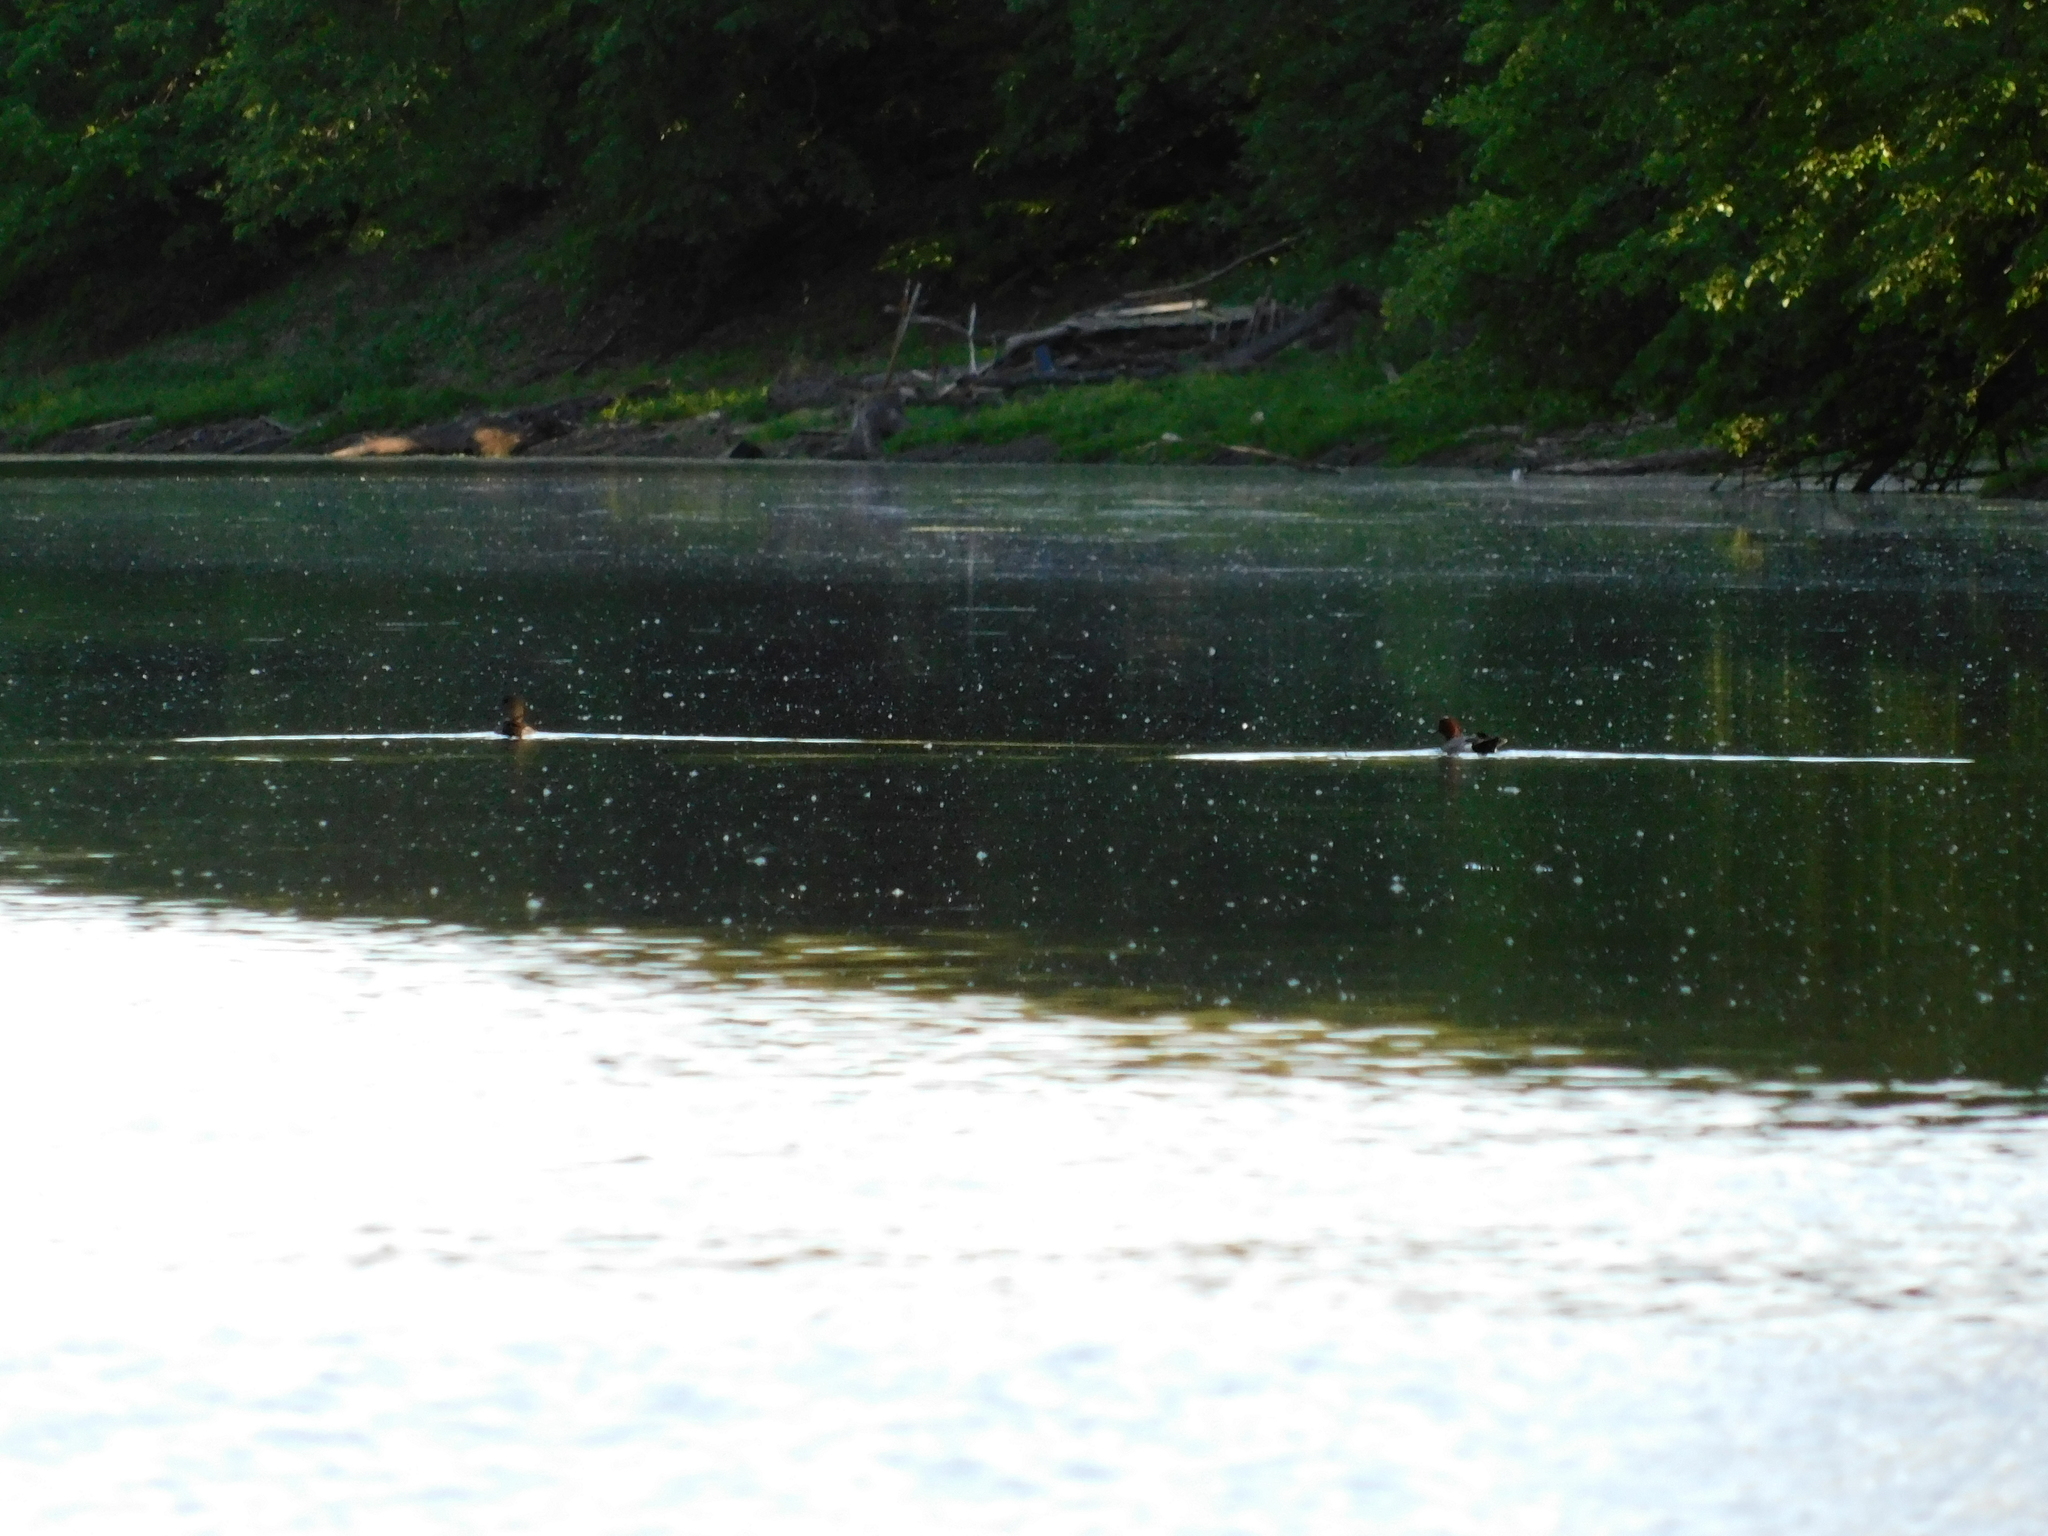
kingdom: Animalia
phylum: Chordata
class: Aves
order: Anseriformes
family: Anatidae
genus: Mareca
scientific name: Mareca penelope
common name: Eurasian wigeon
